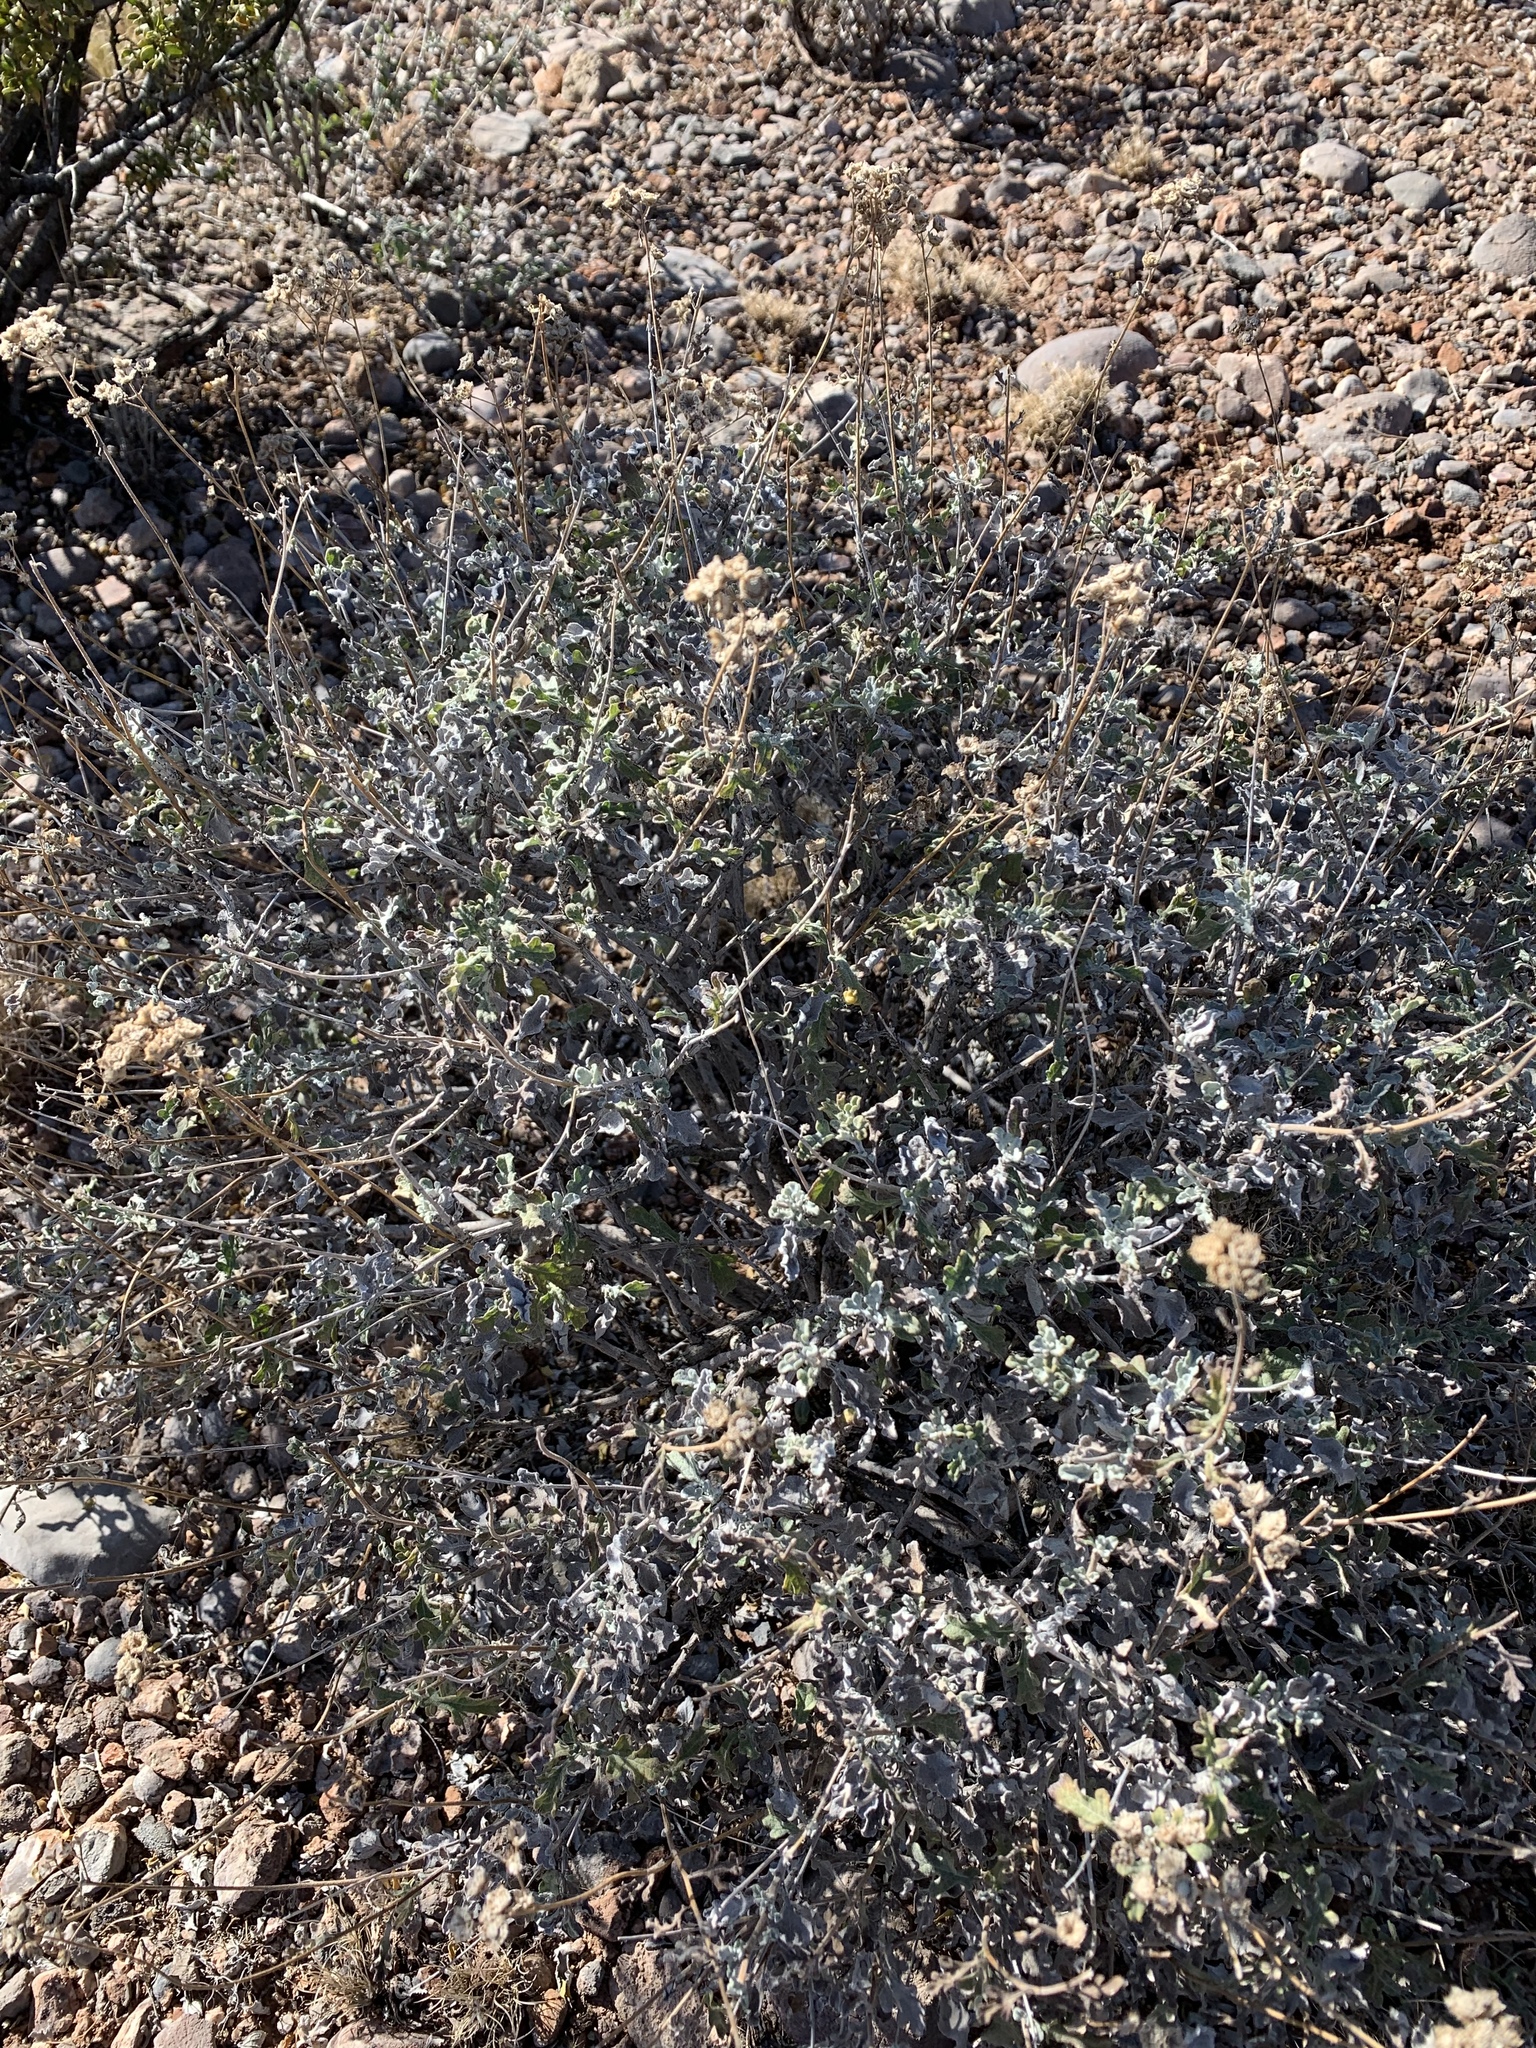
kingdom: Plantae
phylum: Tracheophyta
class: Magnoliopsida
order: Asterales
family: Asteraceae
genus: Parthenium
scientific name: Parthenium incanum
